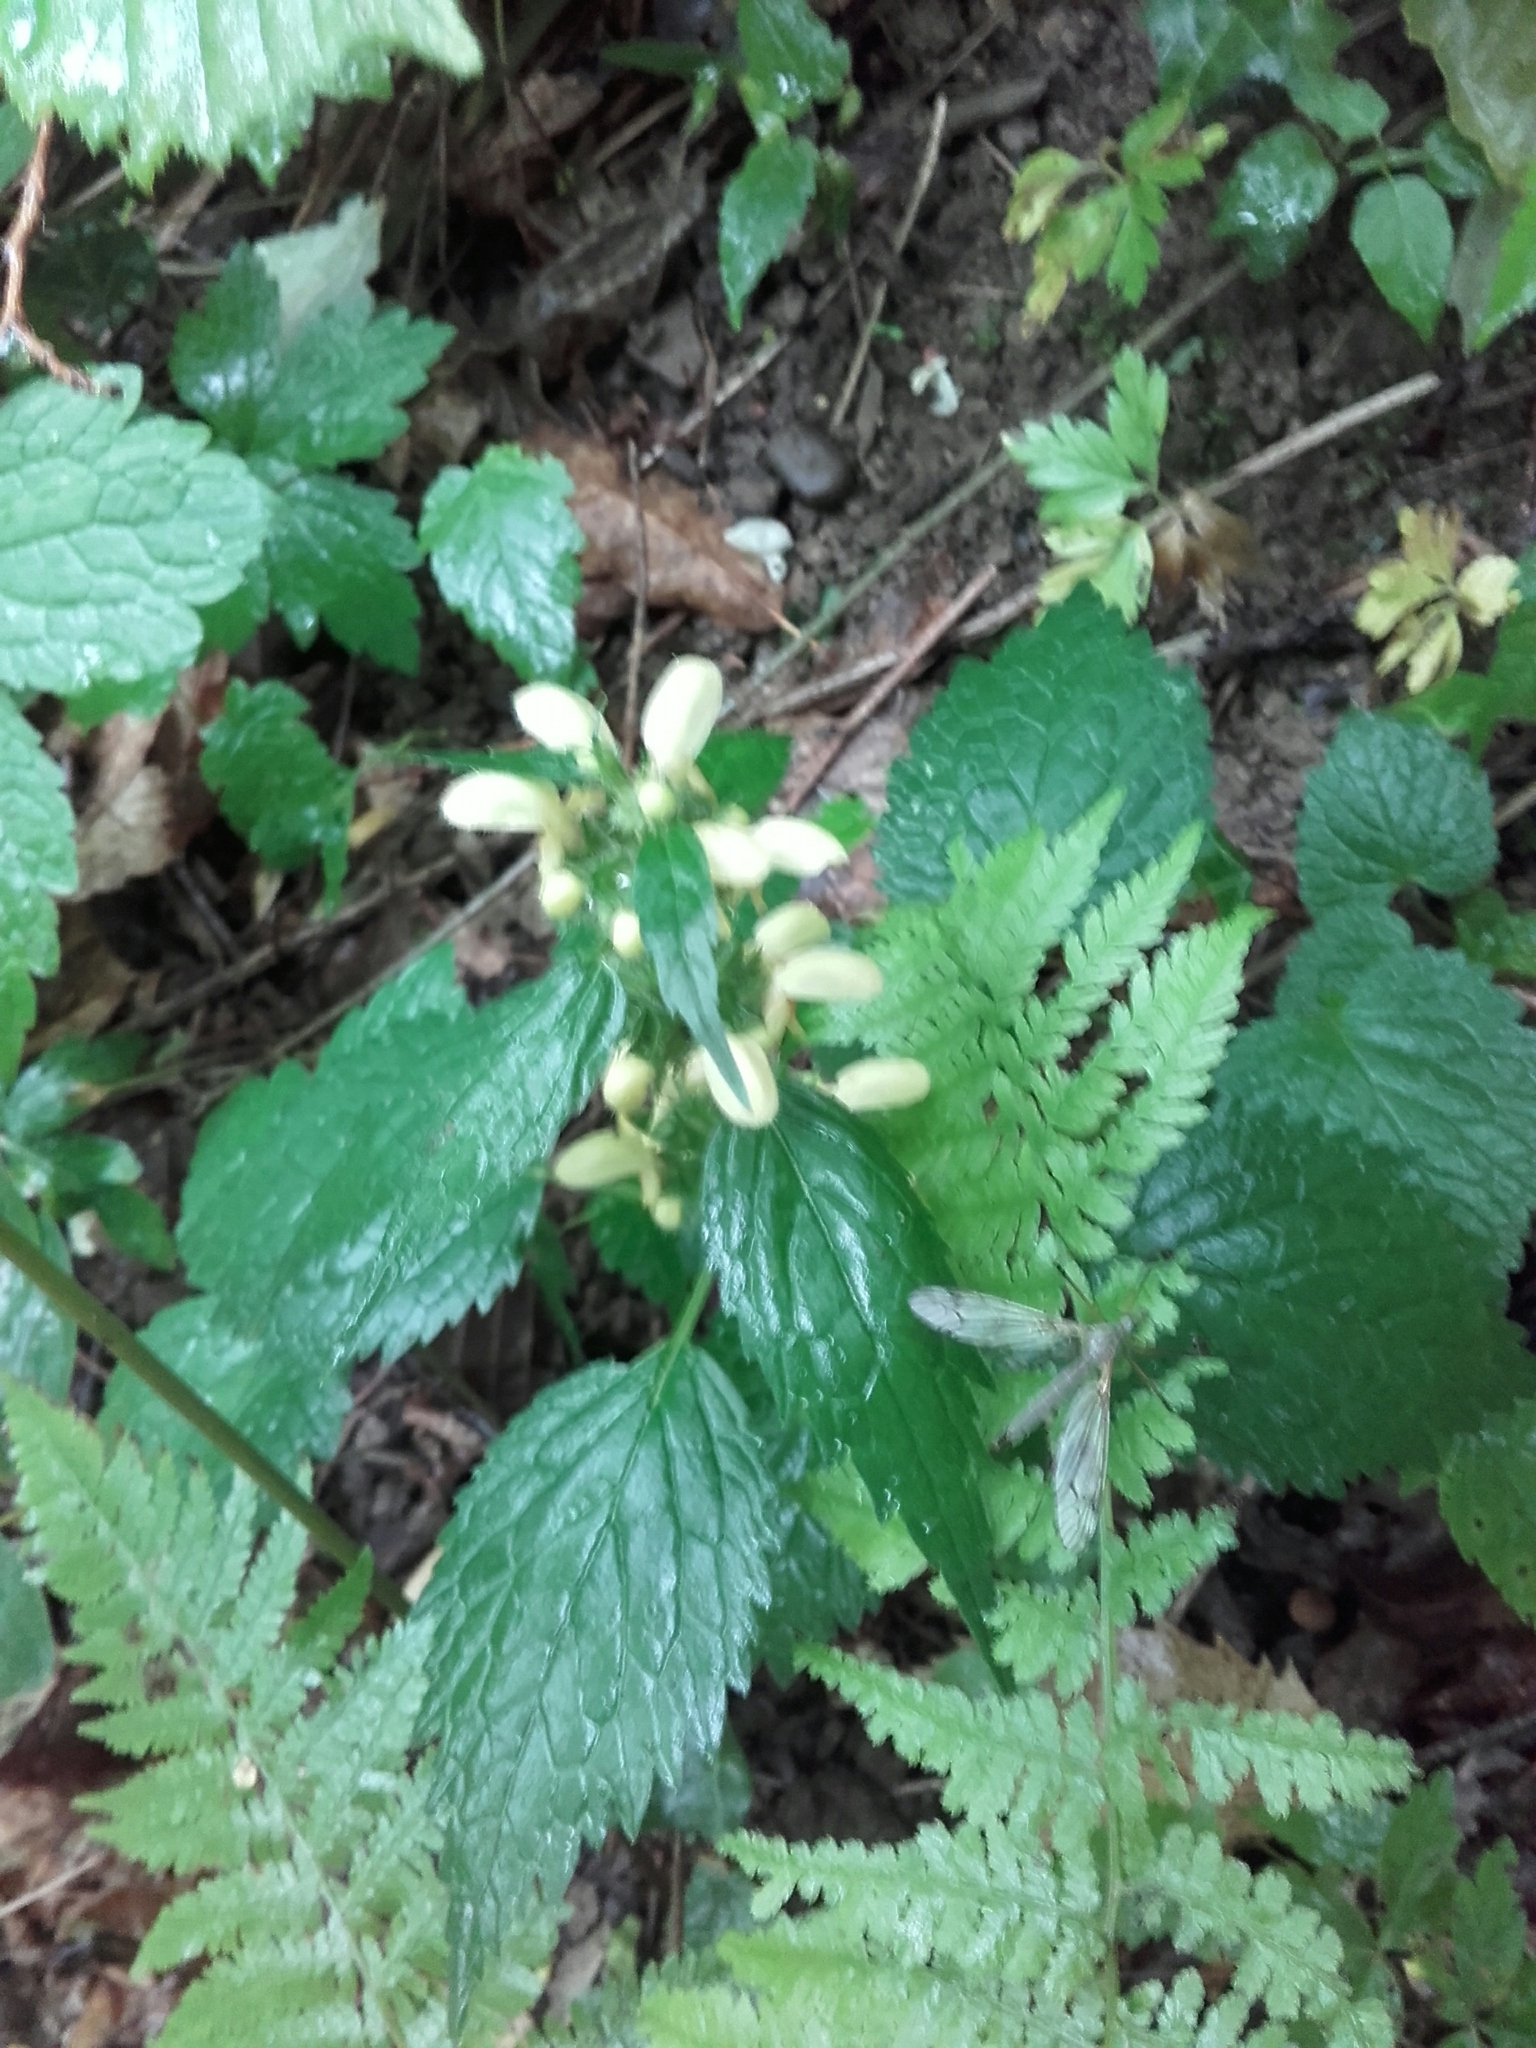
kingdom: Plantae
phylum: Tracheophyta
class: Magnoliopsida
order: Lamiales
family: Lamiaceae
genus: Lamium
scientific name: Lamium galeobdolon
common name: Yellow archangel
